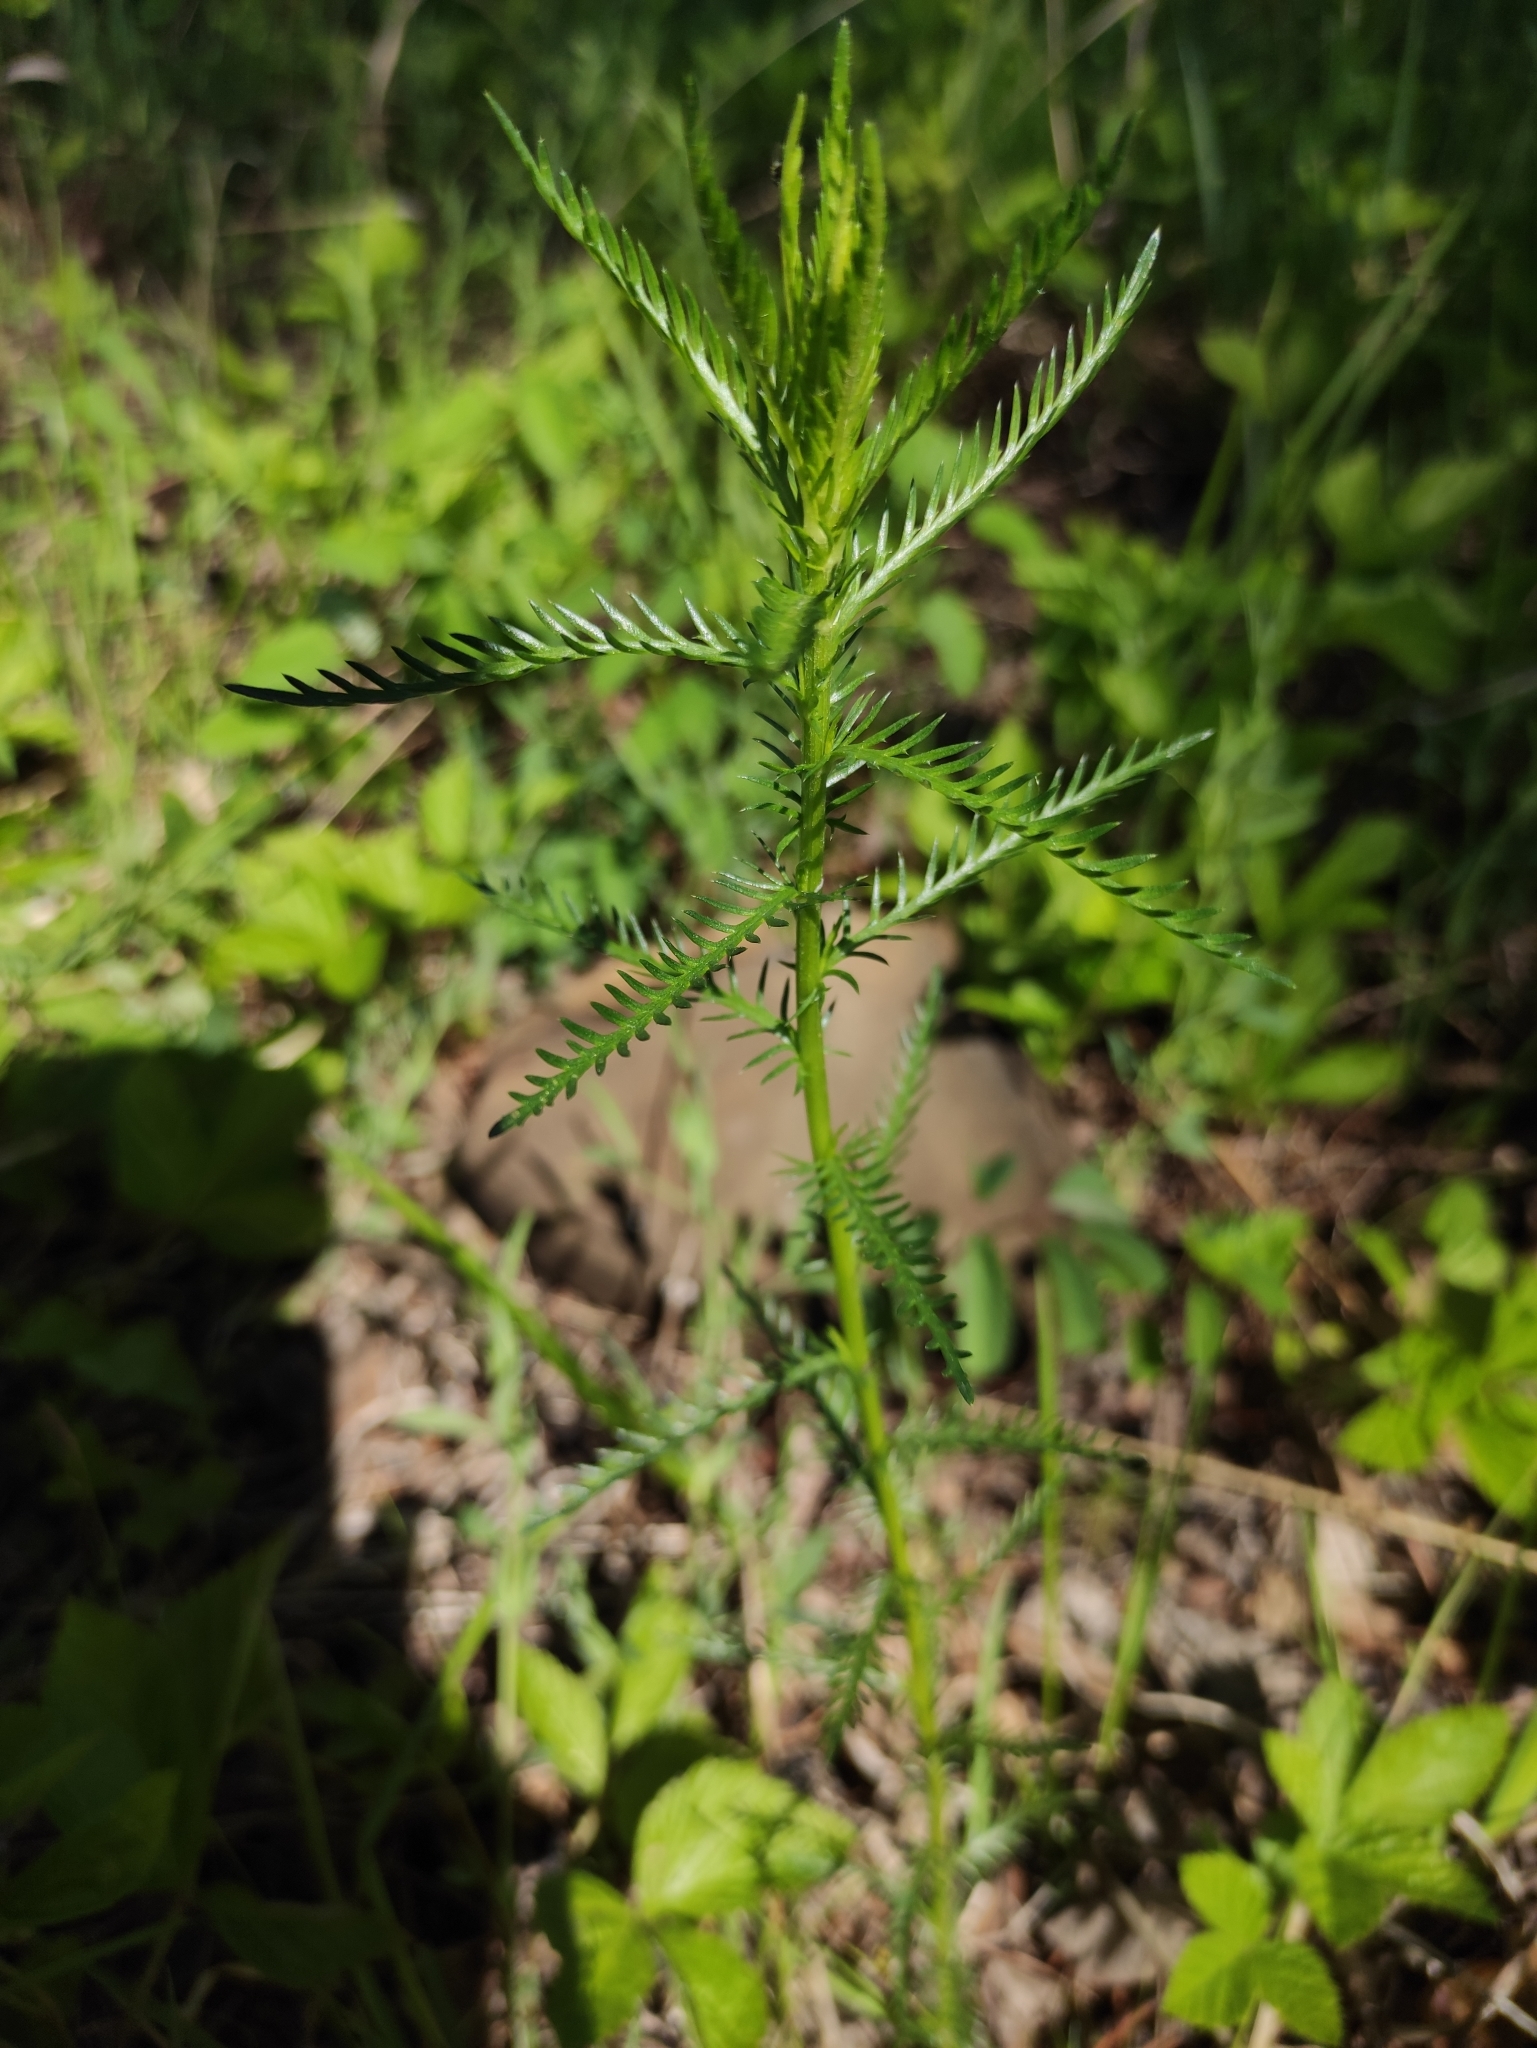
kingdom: Plantae
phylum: Tracheophyta
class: Magnoliopsida
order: Asterales
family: Asteraceae
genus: Achillea
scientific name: Achillea impatiens
